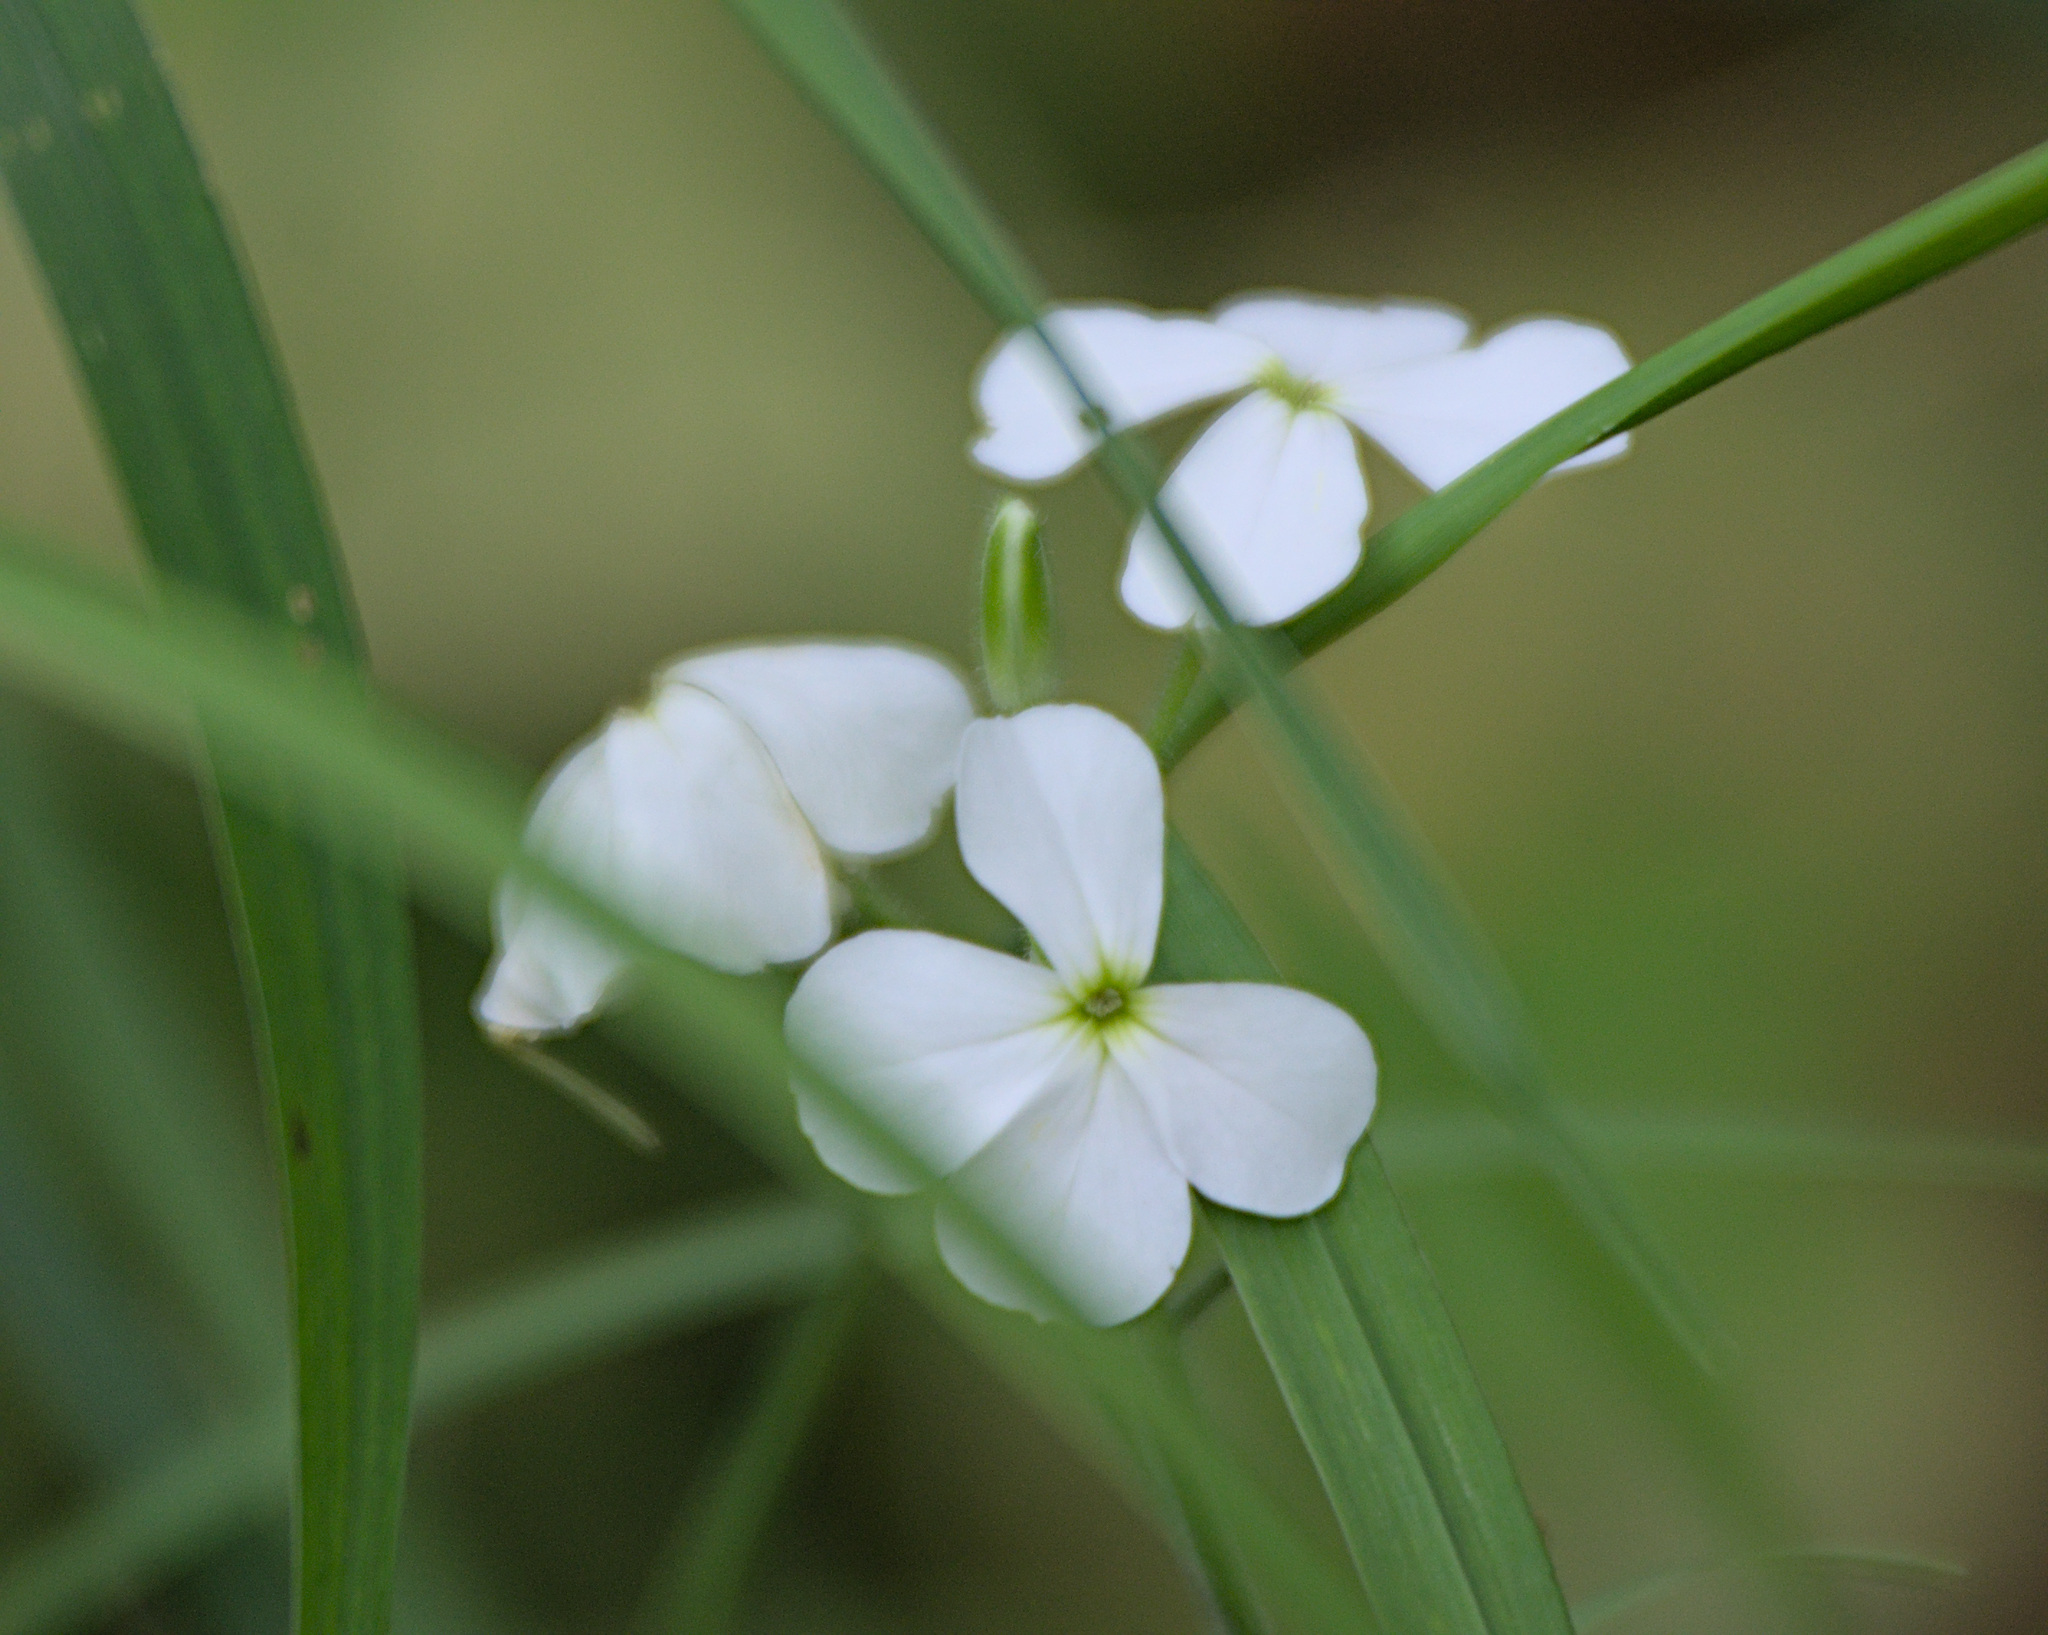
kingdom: Plantae
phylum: Tracheophyta
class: Magnoliopsida
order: Brassicales
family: Brassicaceae
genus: Hesperis
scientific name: Hesperis sibirica
